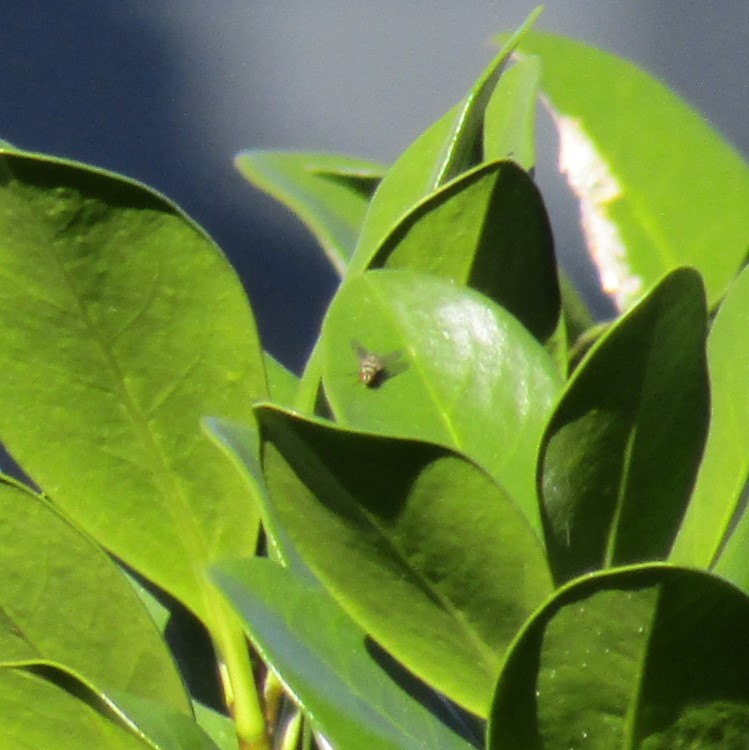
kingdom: Animalia
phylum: Arthropoda
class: Insecta
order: Diptera
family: Tachinidae
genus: Trigonospila
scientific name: Trigonospila brevifacies
